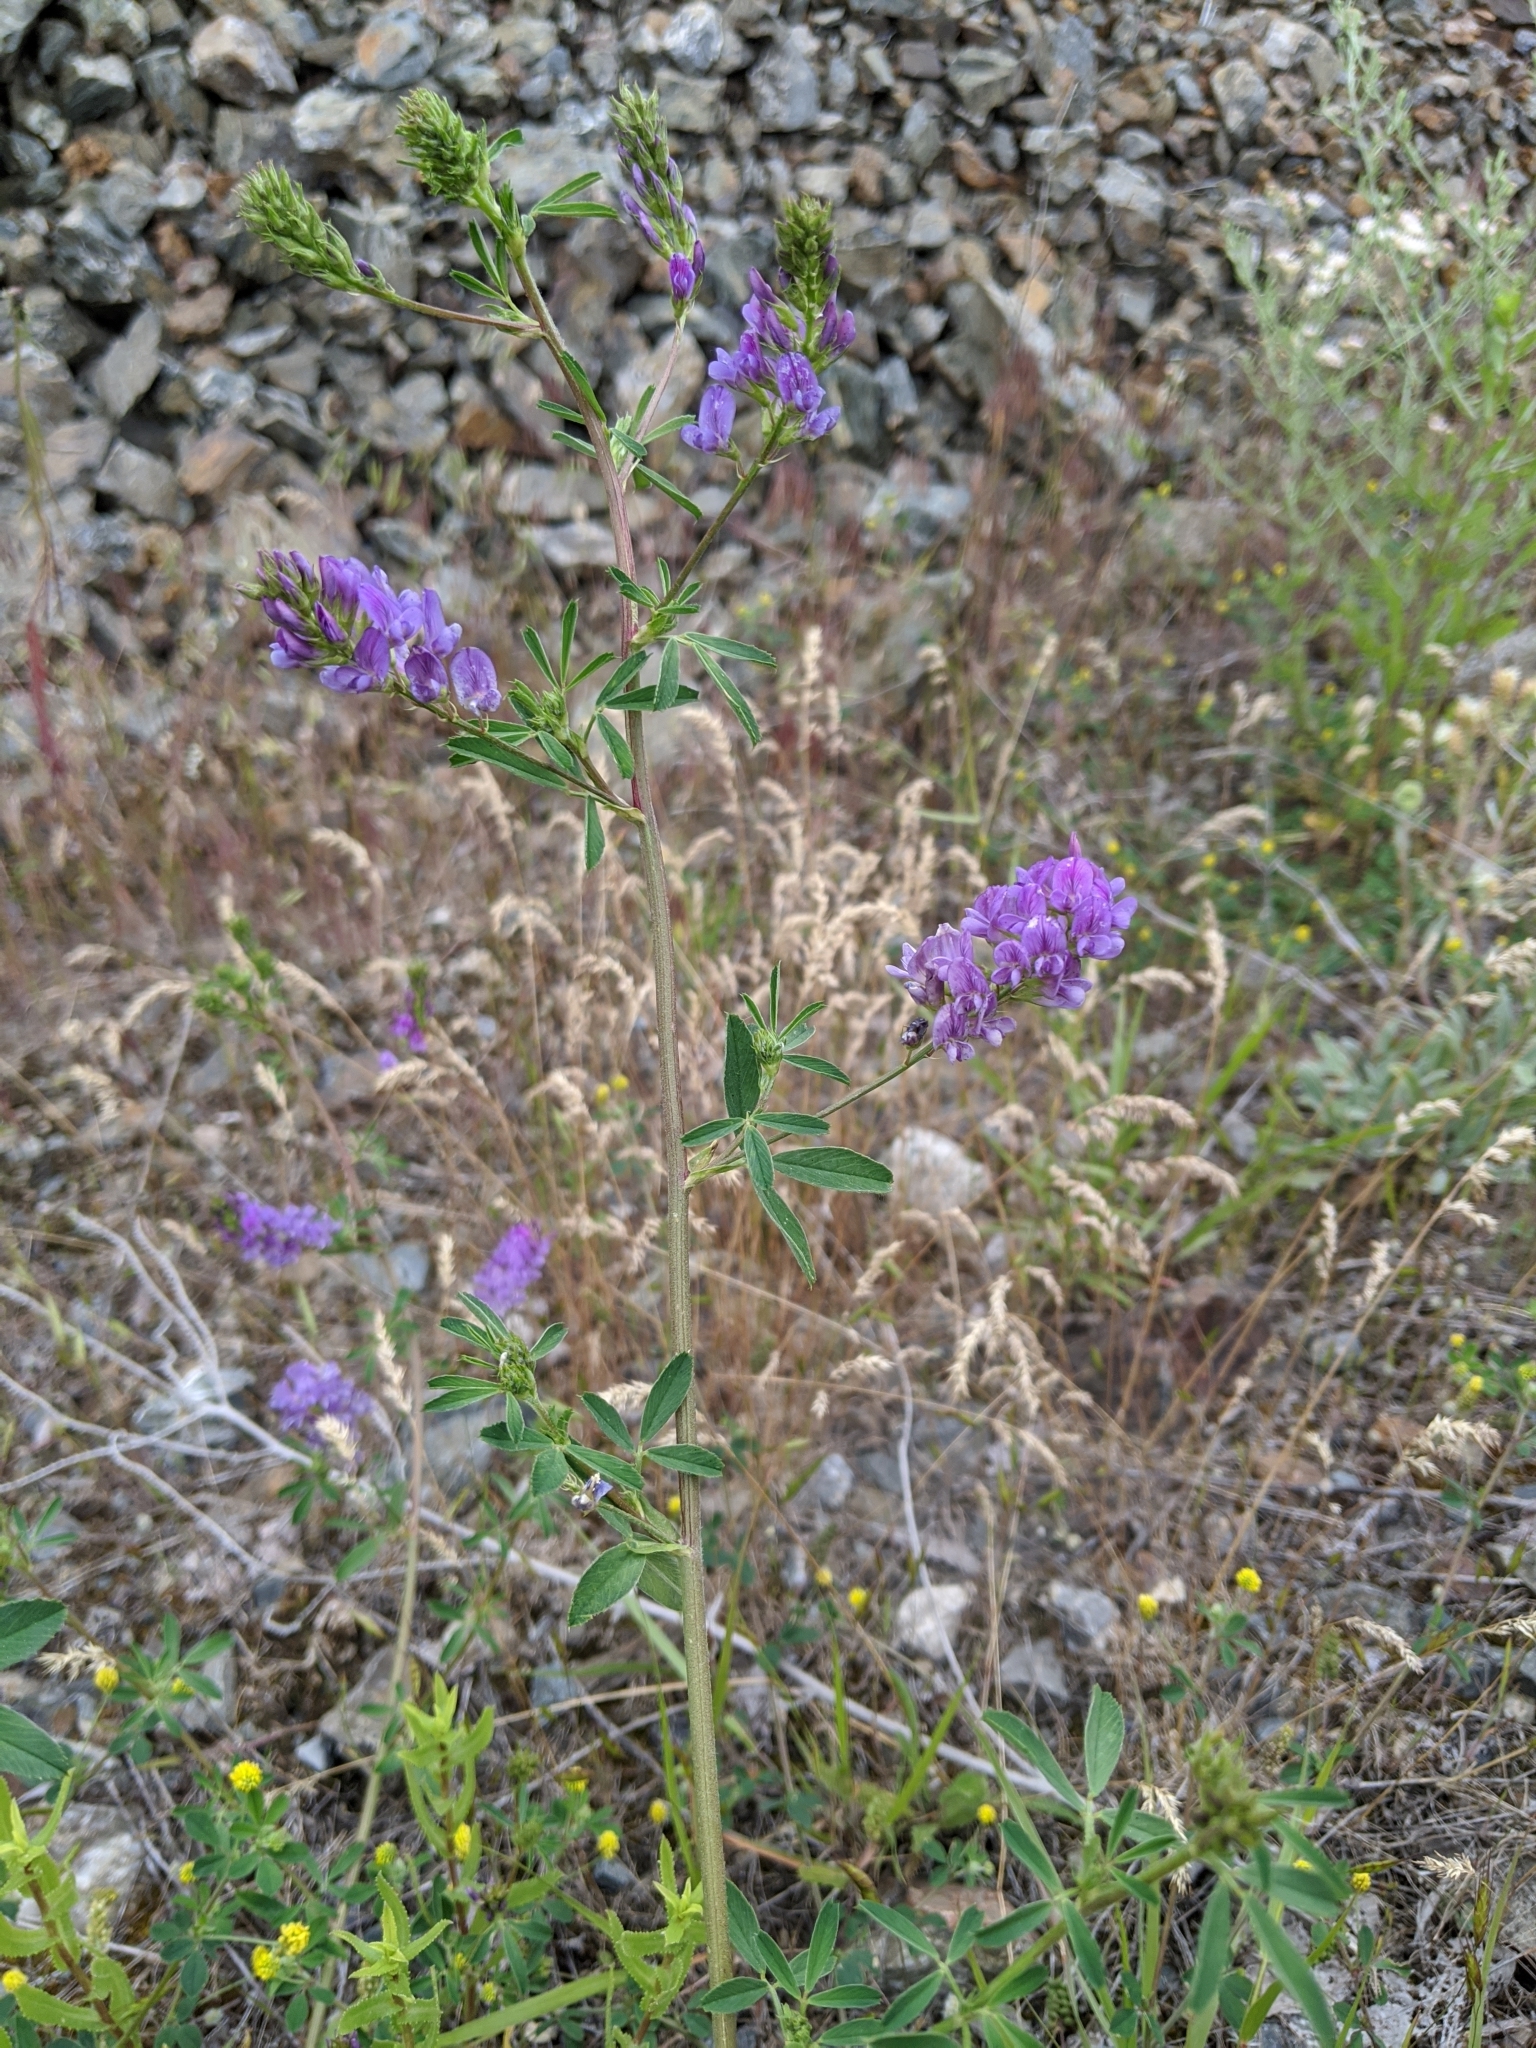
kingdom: Plantae
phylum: Tracheophyta
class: Magnoliopsida
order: Fabales
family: Fabaceae
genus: Medicago
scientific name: Medicago sativa
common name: Alfalfa
